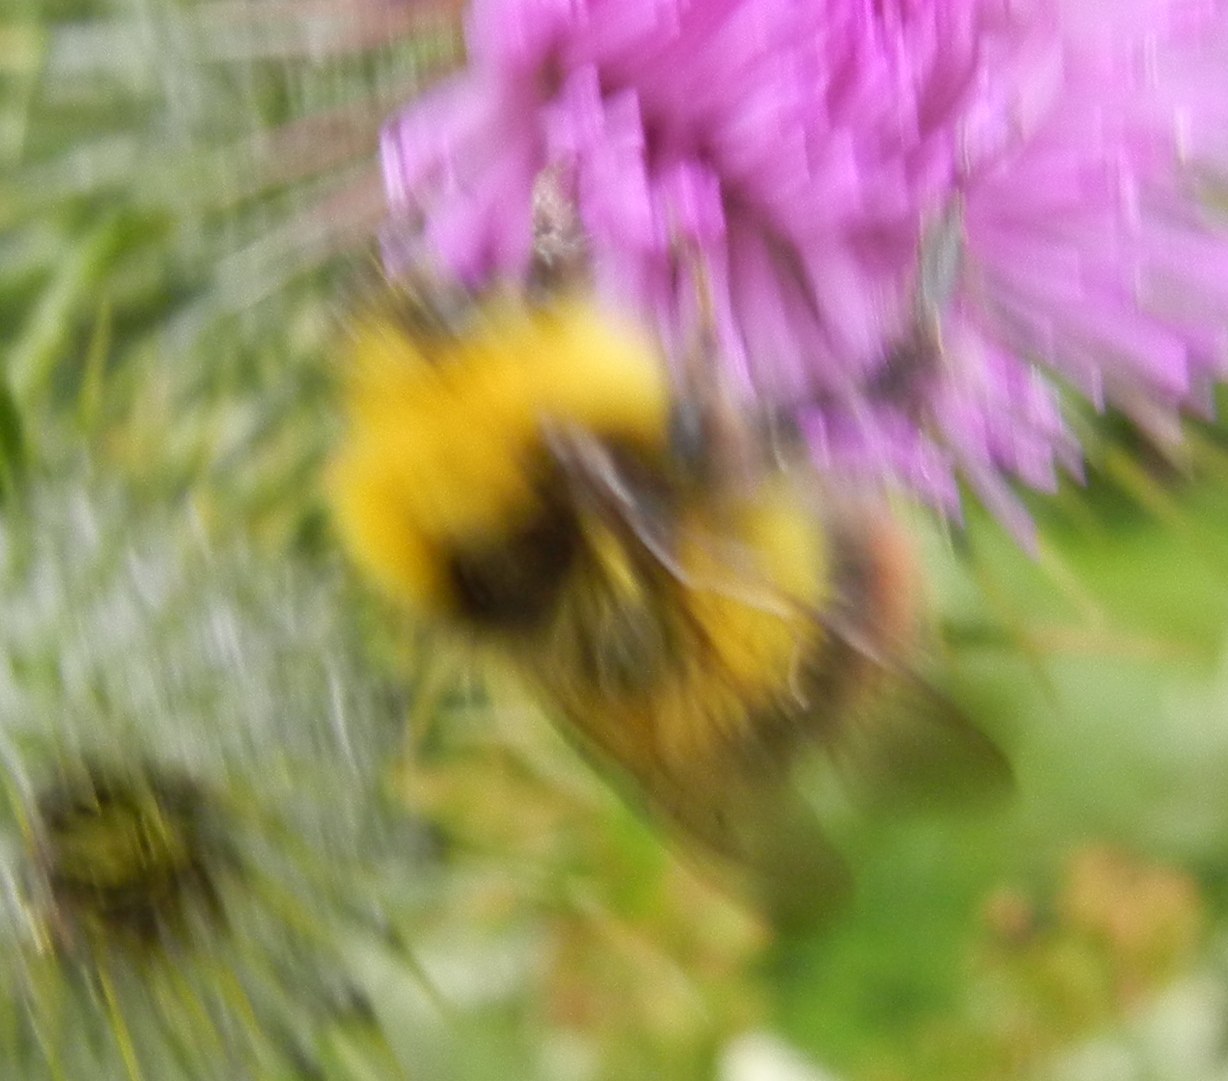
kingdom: Animalia
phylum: Arthropoda
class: Insecta
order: Hymenoptera
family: Apidae
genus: Bombus
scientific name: Bombus pratorum
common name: Early humble-bee
